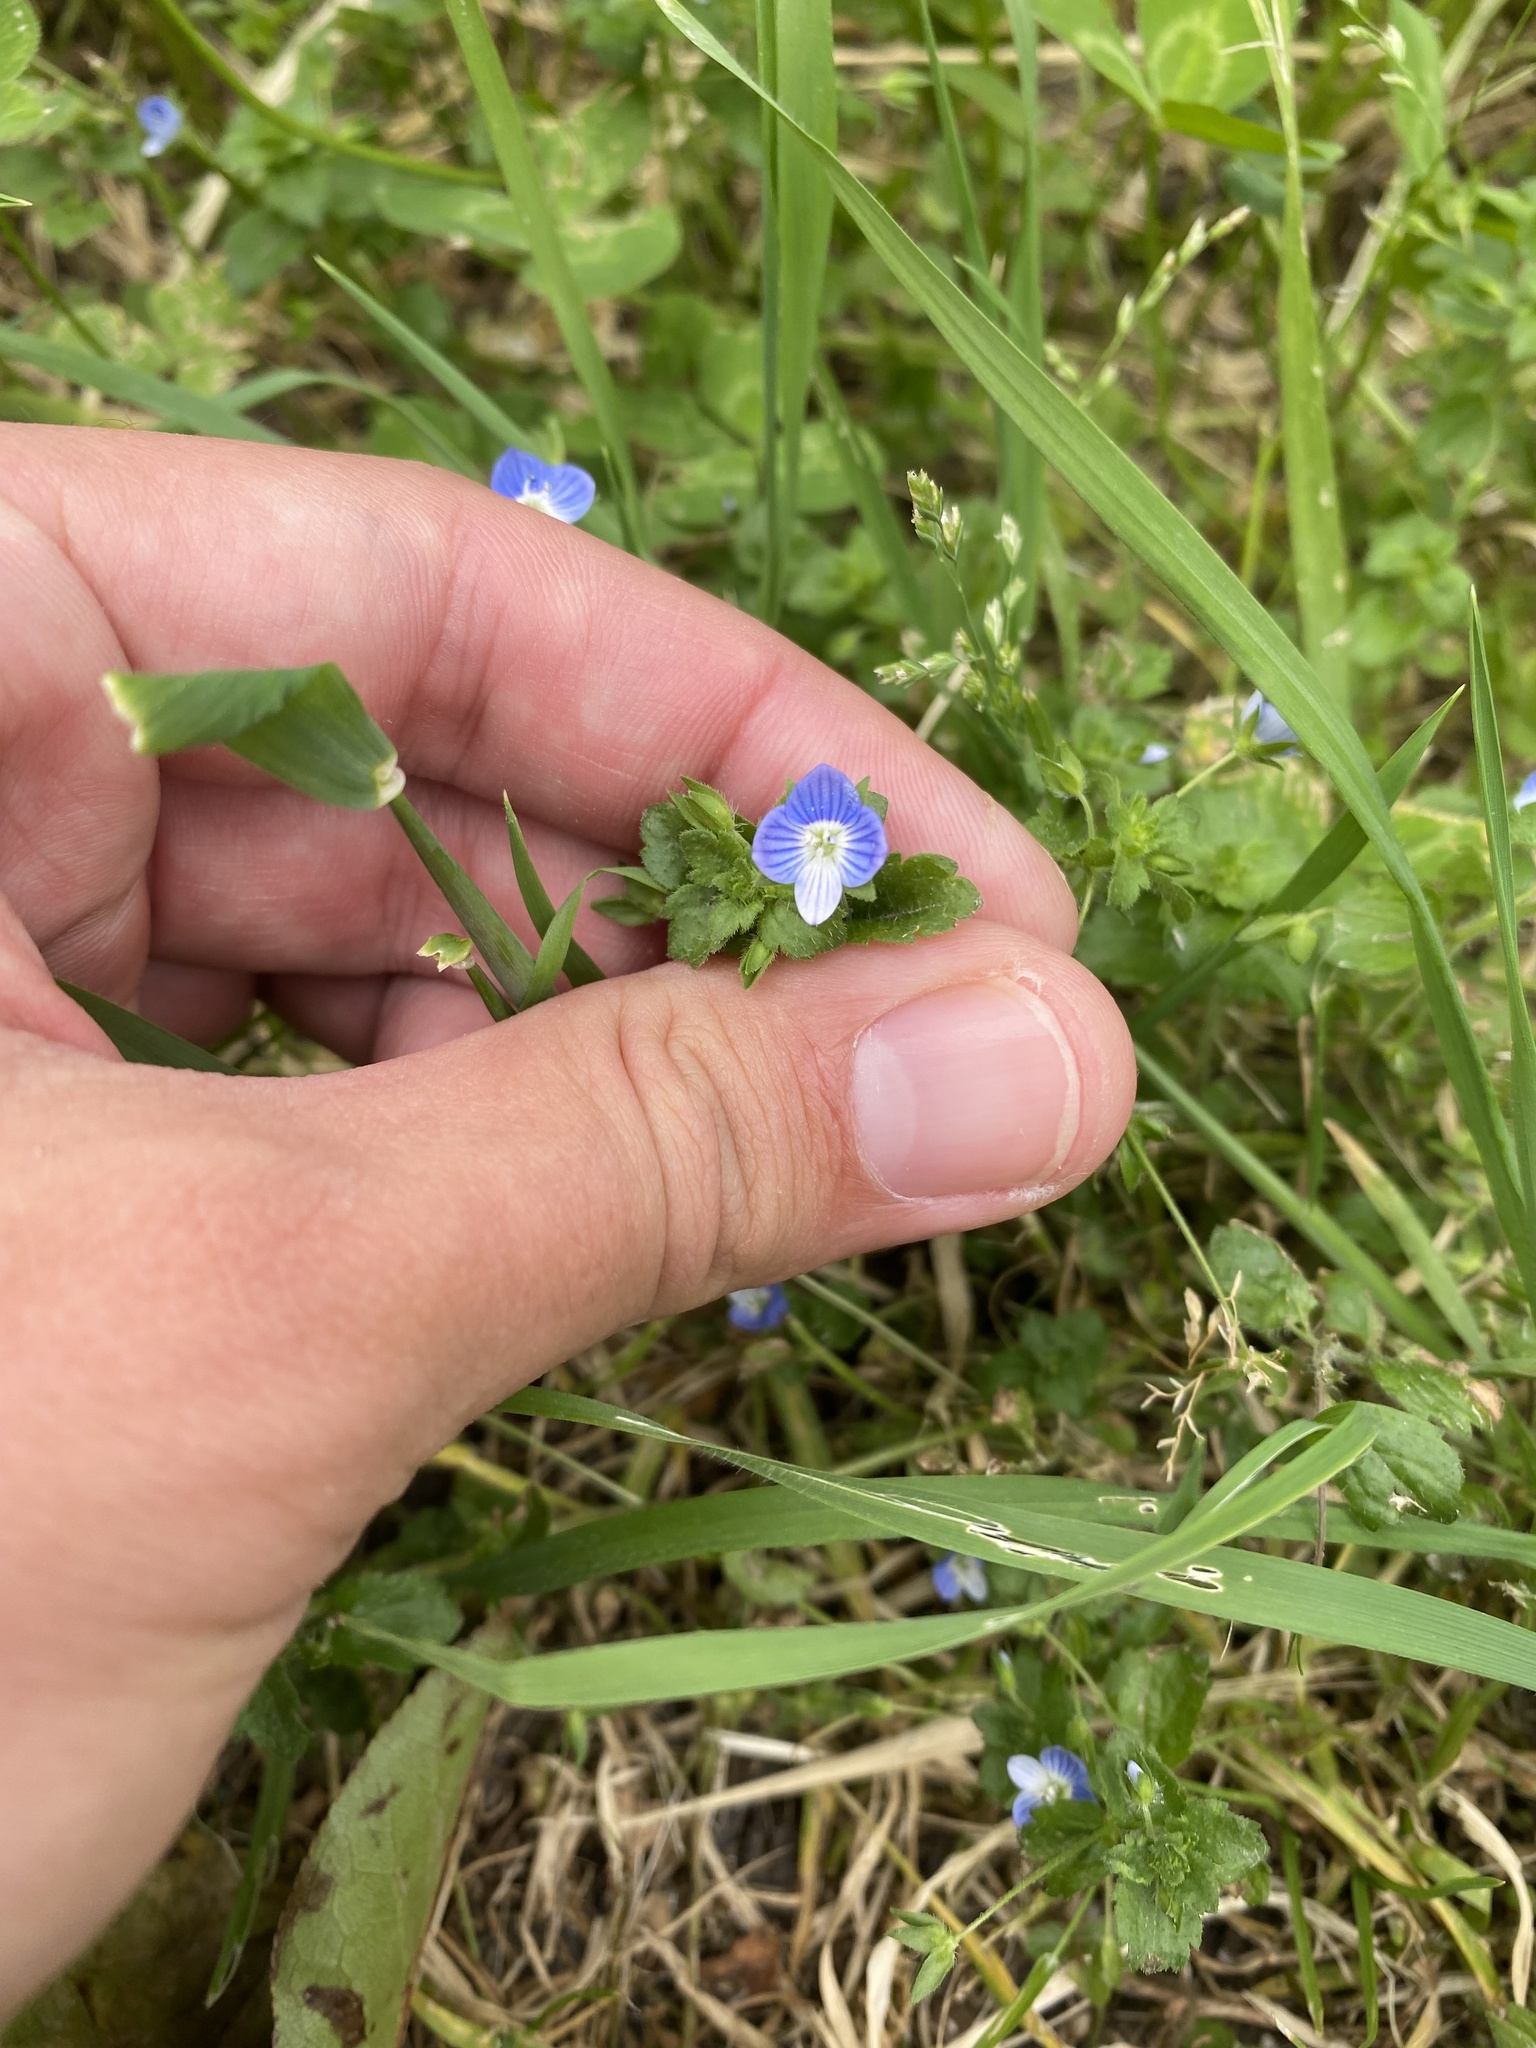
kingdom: Plantae
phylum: Tracheophyta
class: Magnoliopsida
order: Lamiales
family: Plantaginaceae
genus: Veronica
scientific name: Veronica persica
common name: Common field-speedwell
